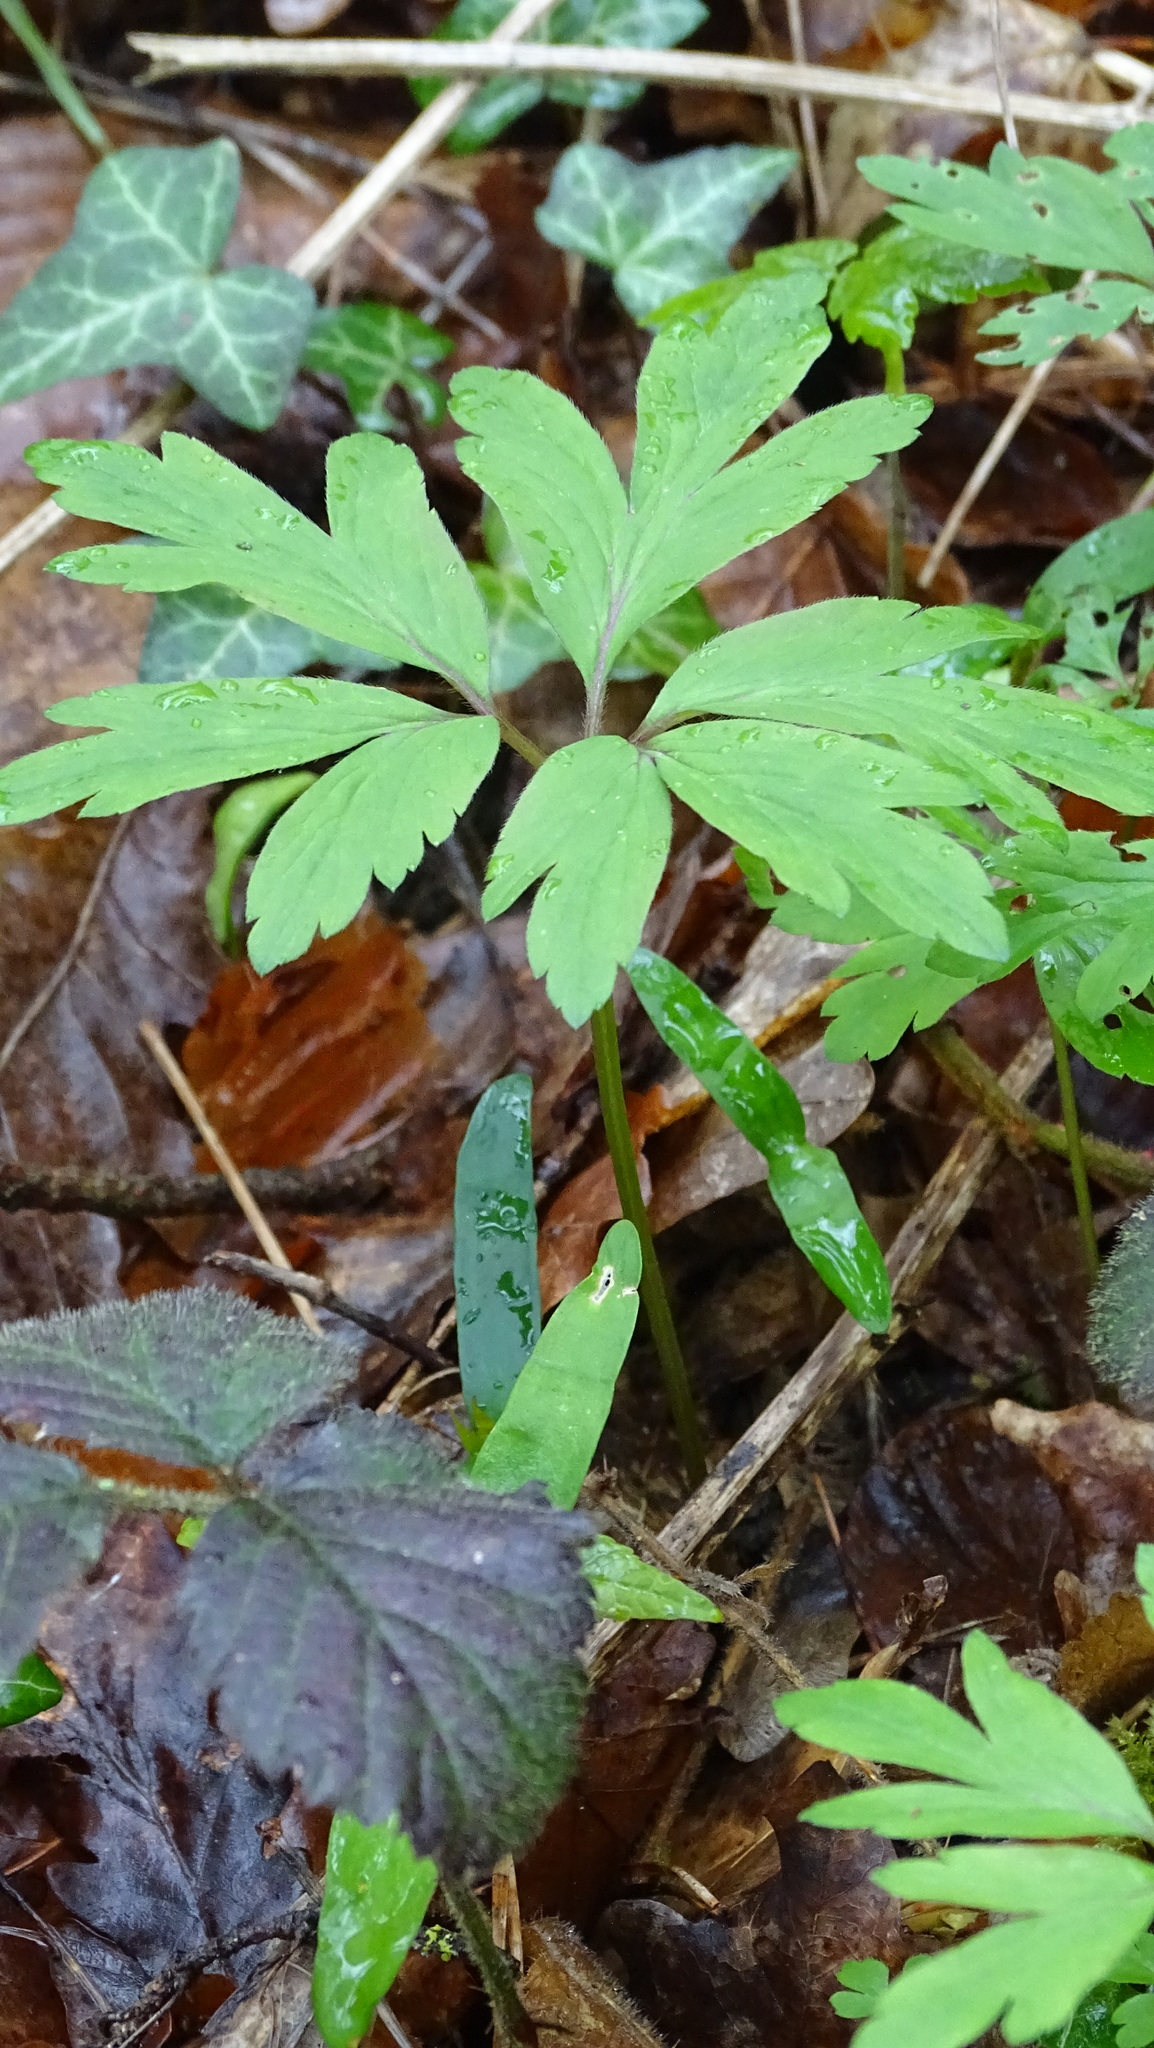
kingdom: Plantae
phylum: Tracheophyta
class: Magnoliopsida
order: Ranunculales
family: Ranunculaceae
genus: Anemone
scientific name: Anemone nemorosa
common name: Wood anemone
